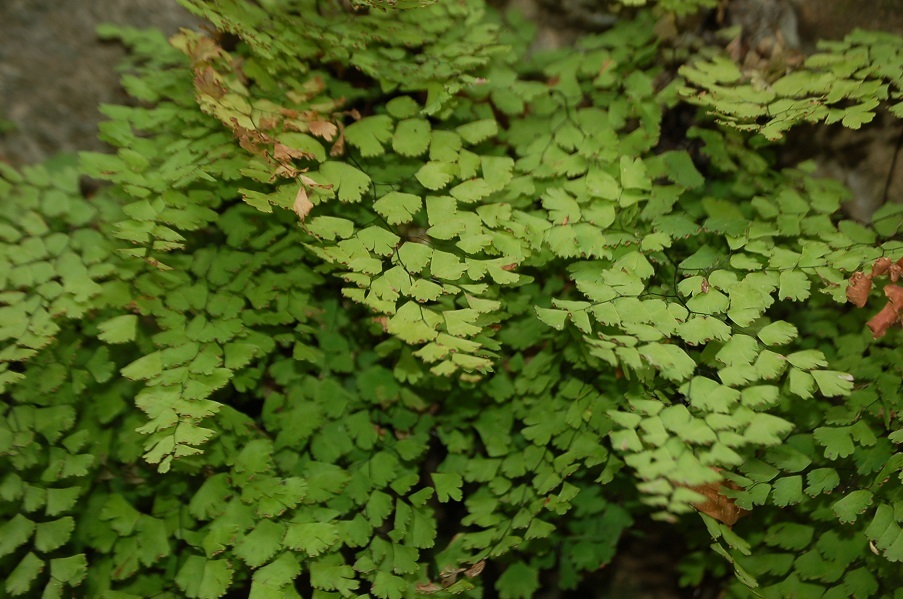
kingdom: Plantae
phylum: Tracheophyta
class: Polypodiopsida
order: Polypodiales
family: Pteridaceae
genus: Adiantum
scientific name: Adiantum capillus-veneris
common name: Maidenhair fern
